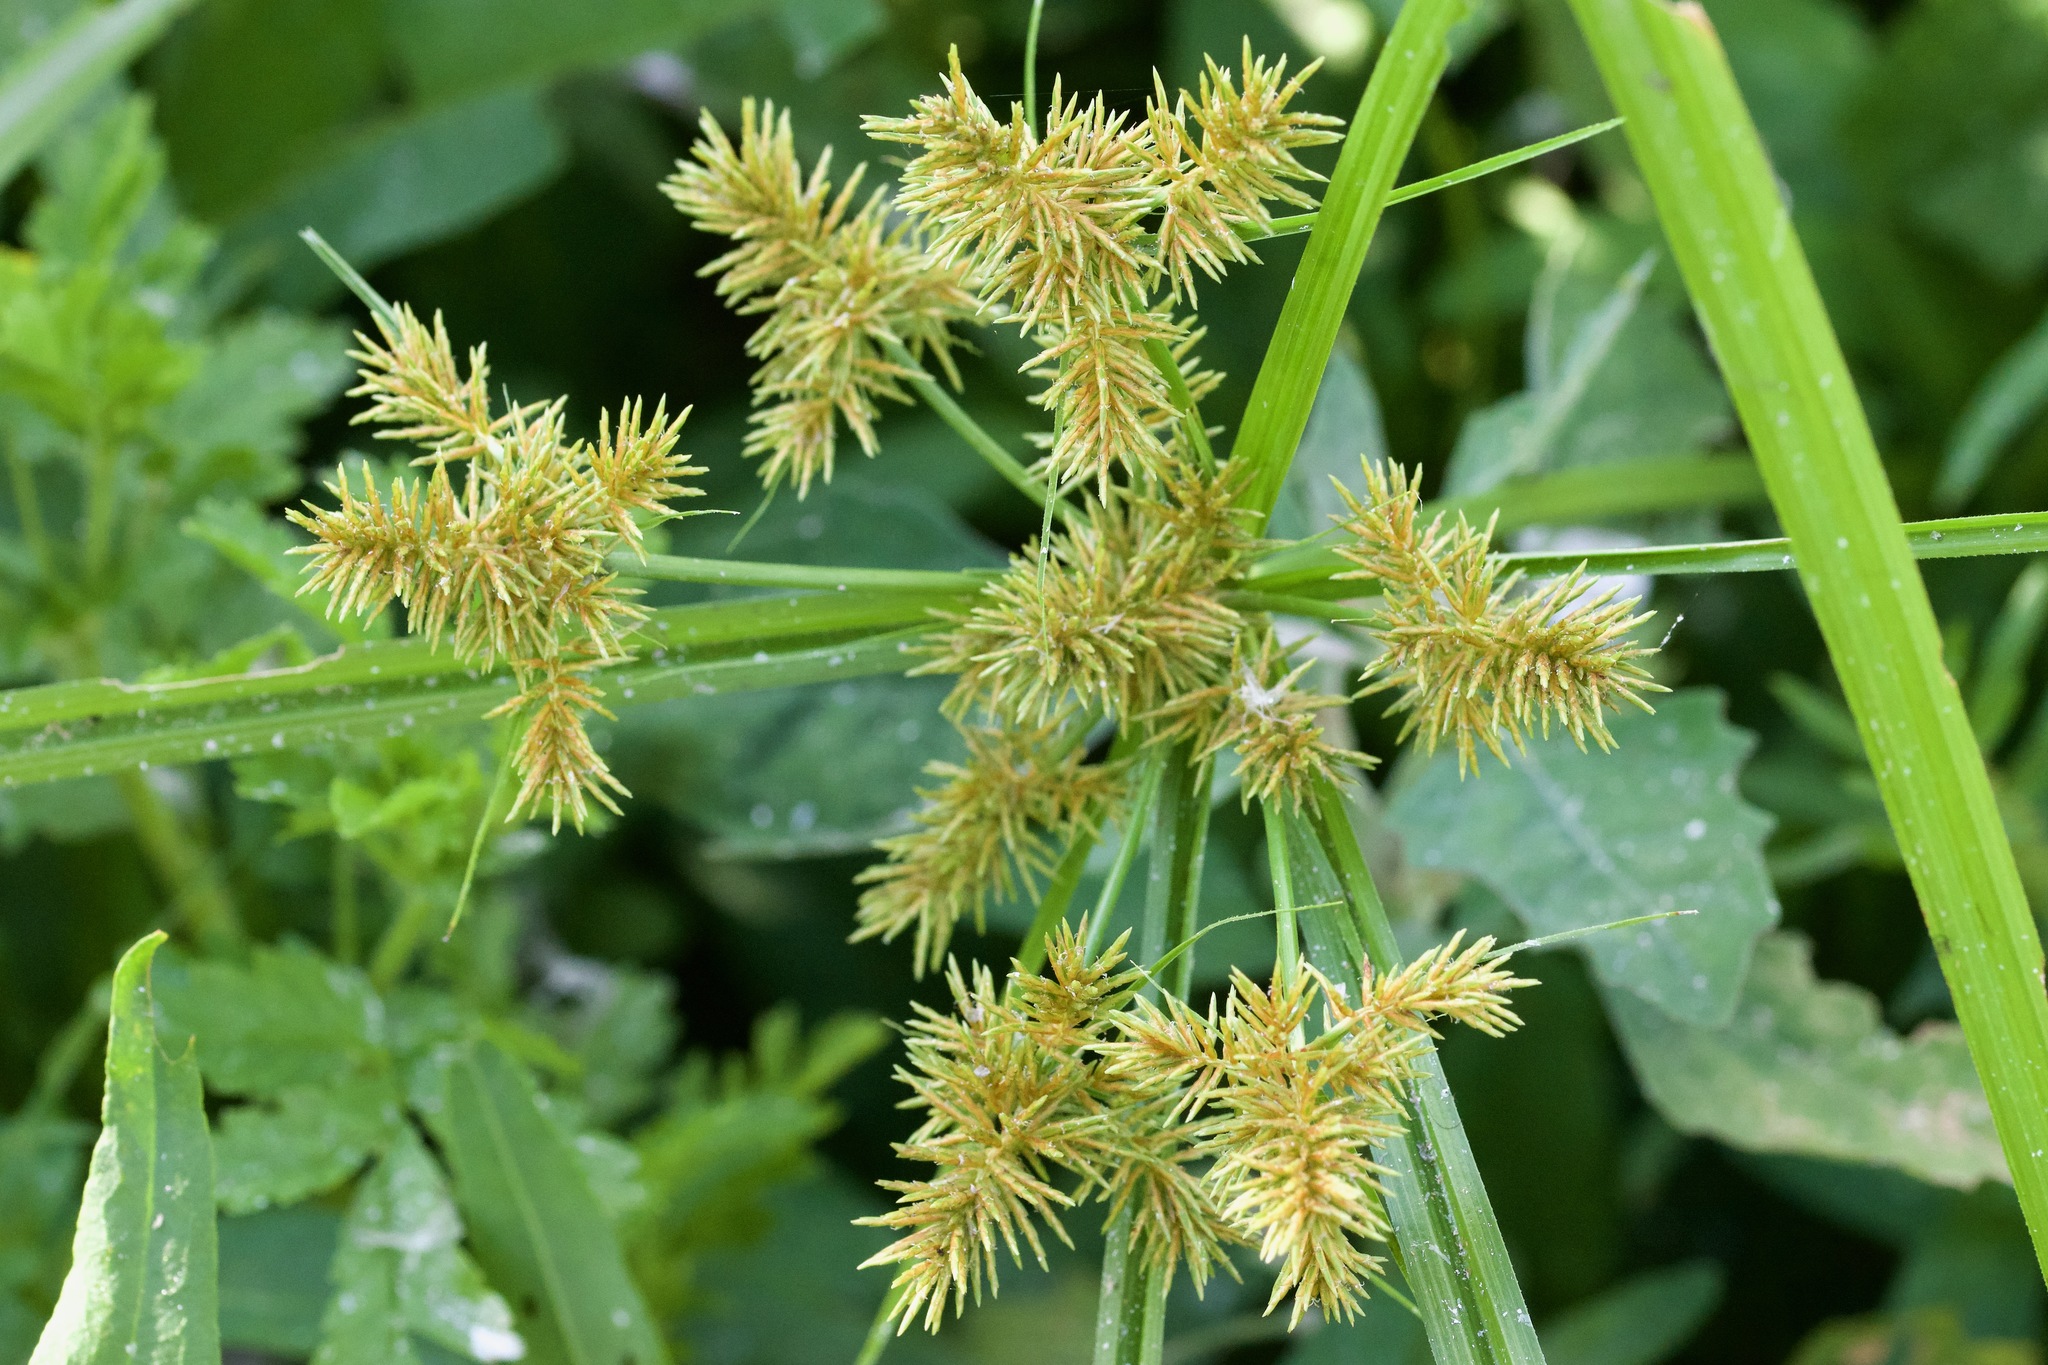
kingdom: Plantae
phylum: Tracheophyta
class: Liliopsida
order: Poales
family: Cyperaceae
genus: Cyperus
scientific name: Cyperus odoratus
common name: Fragrant flatsedge
